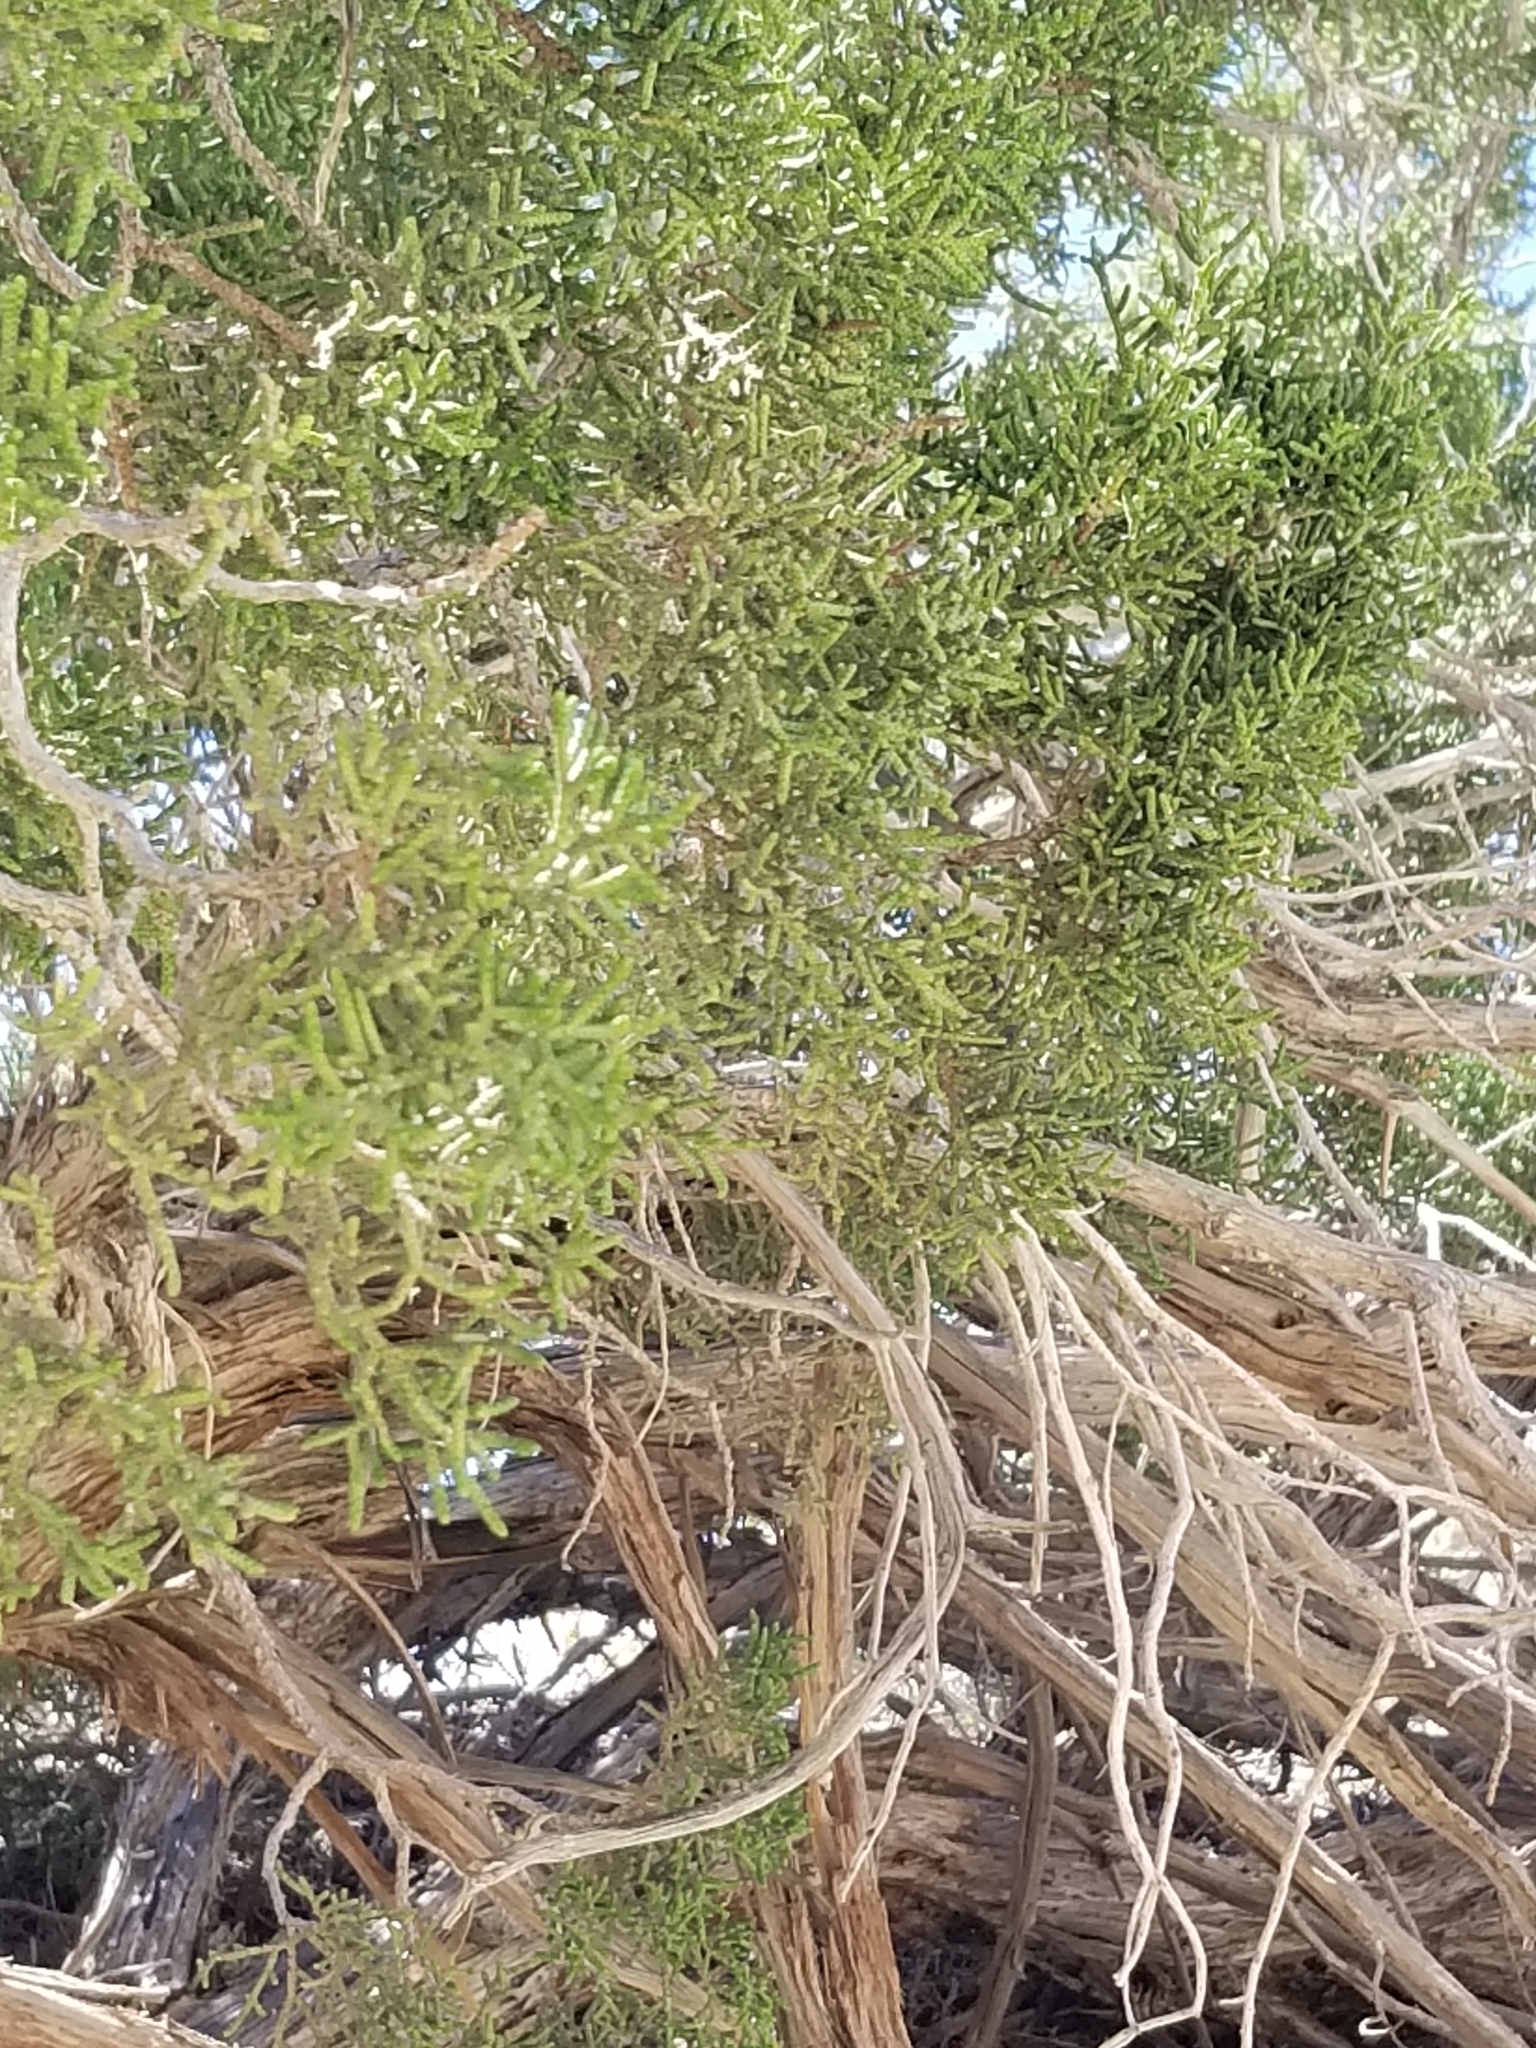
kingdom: Plantae
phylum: Tracheophyta
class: Pinopsida
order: Pinales
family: Cupressaceae
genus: Juniperus
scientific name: Juniperus californica
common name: California juniper
